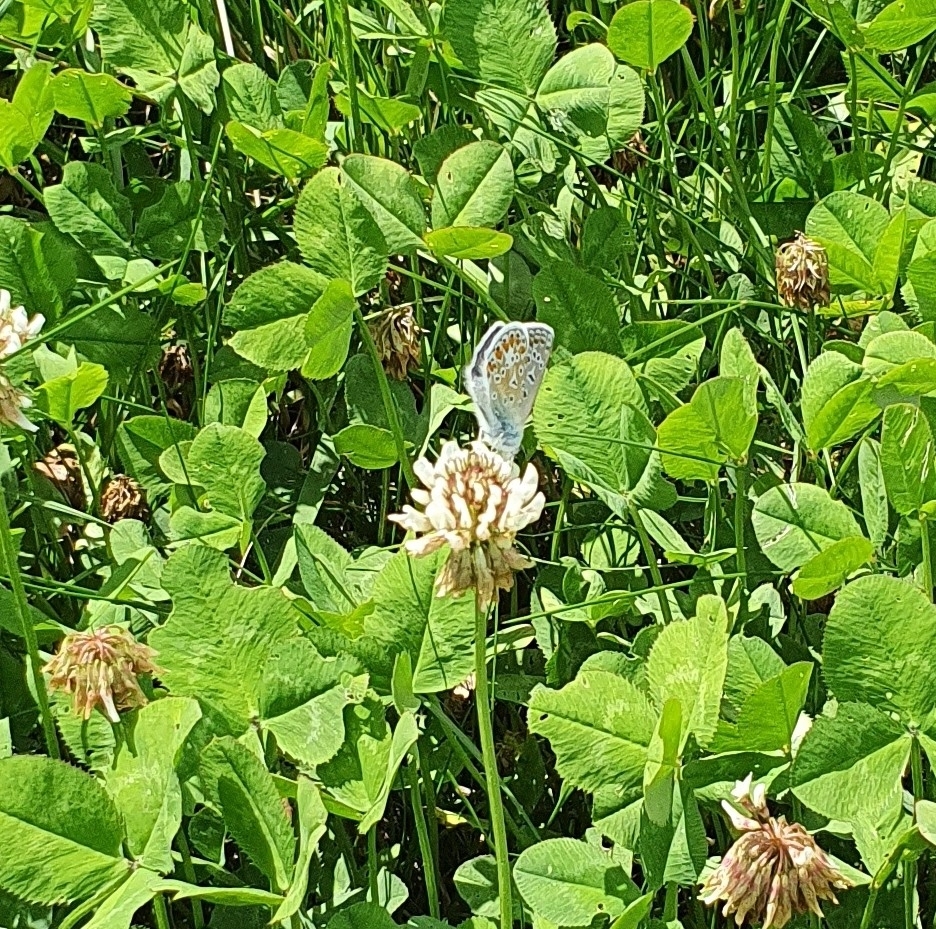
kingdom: Animalia
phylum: Arthropoda
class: Insecta
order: Lepidoptera
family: Lycaenidae
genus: Polyommatus
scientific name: Polyommatus icarus
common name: Common blue
